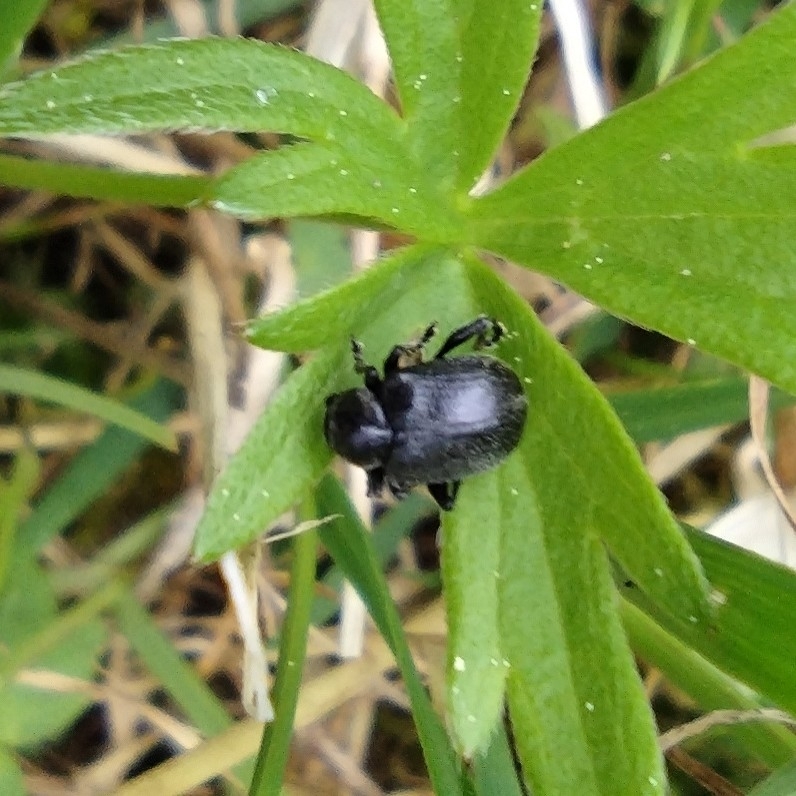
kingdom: Animalia
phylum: Arthropoda
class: Insecta
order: Coleoptera
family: Chrysomelidae
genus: Bromius
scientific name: Bromius obscurus
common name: Western grape rootworm
